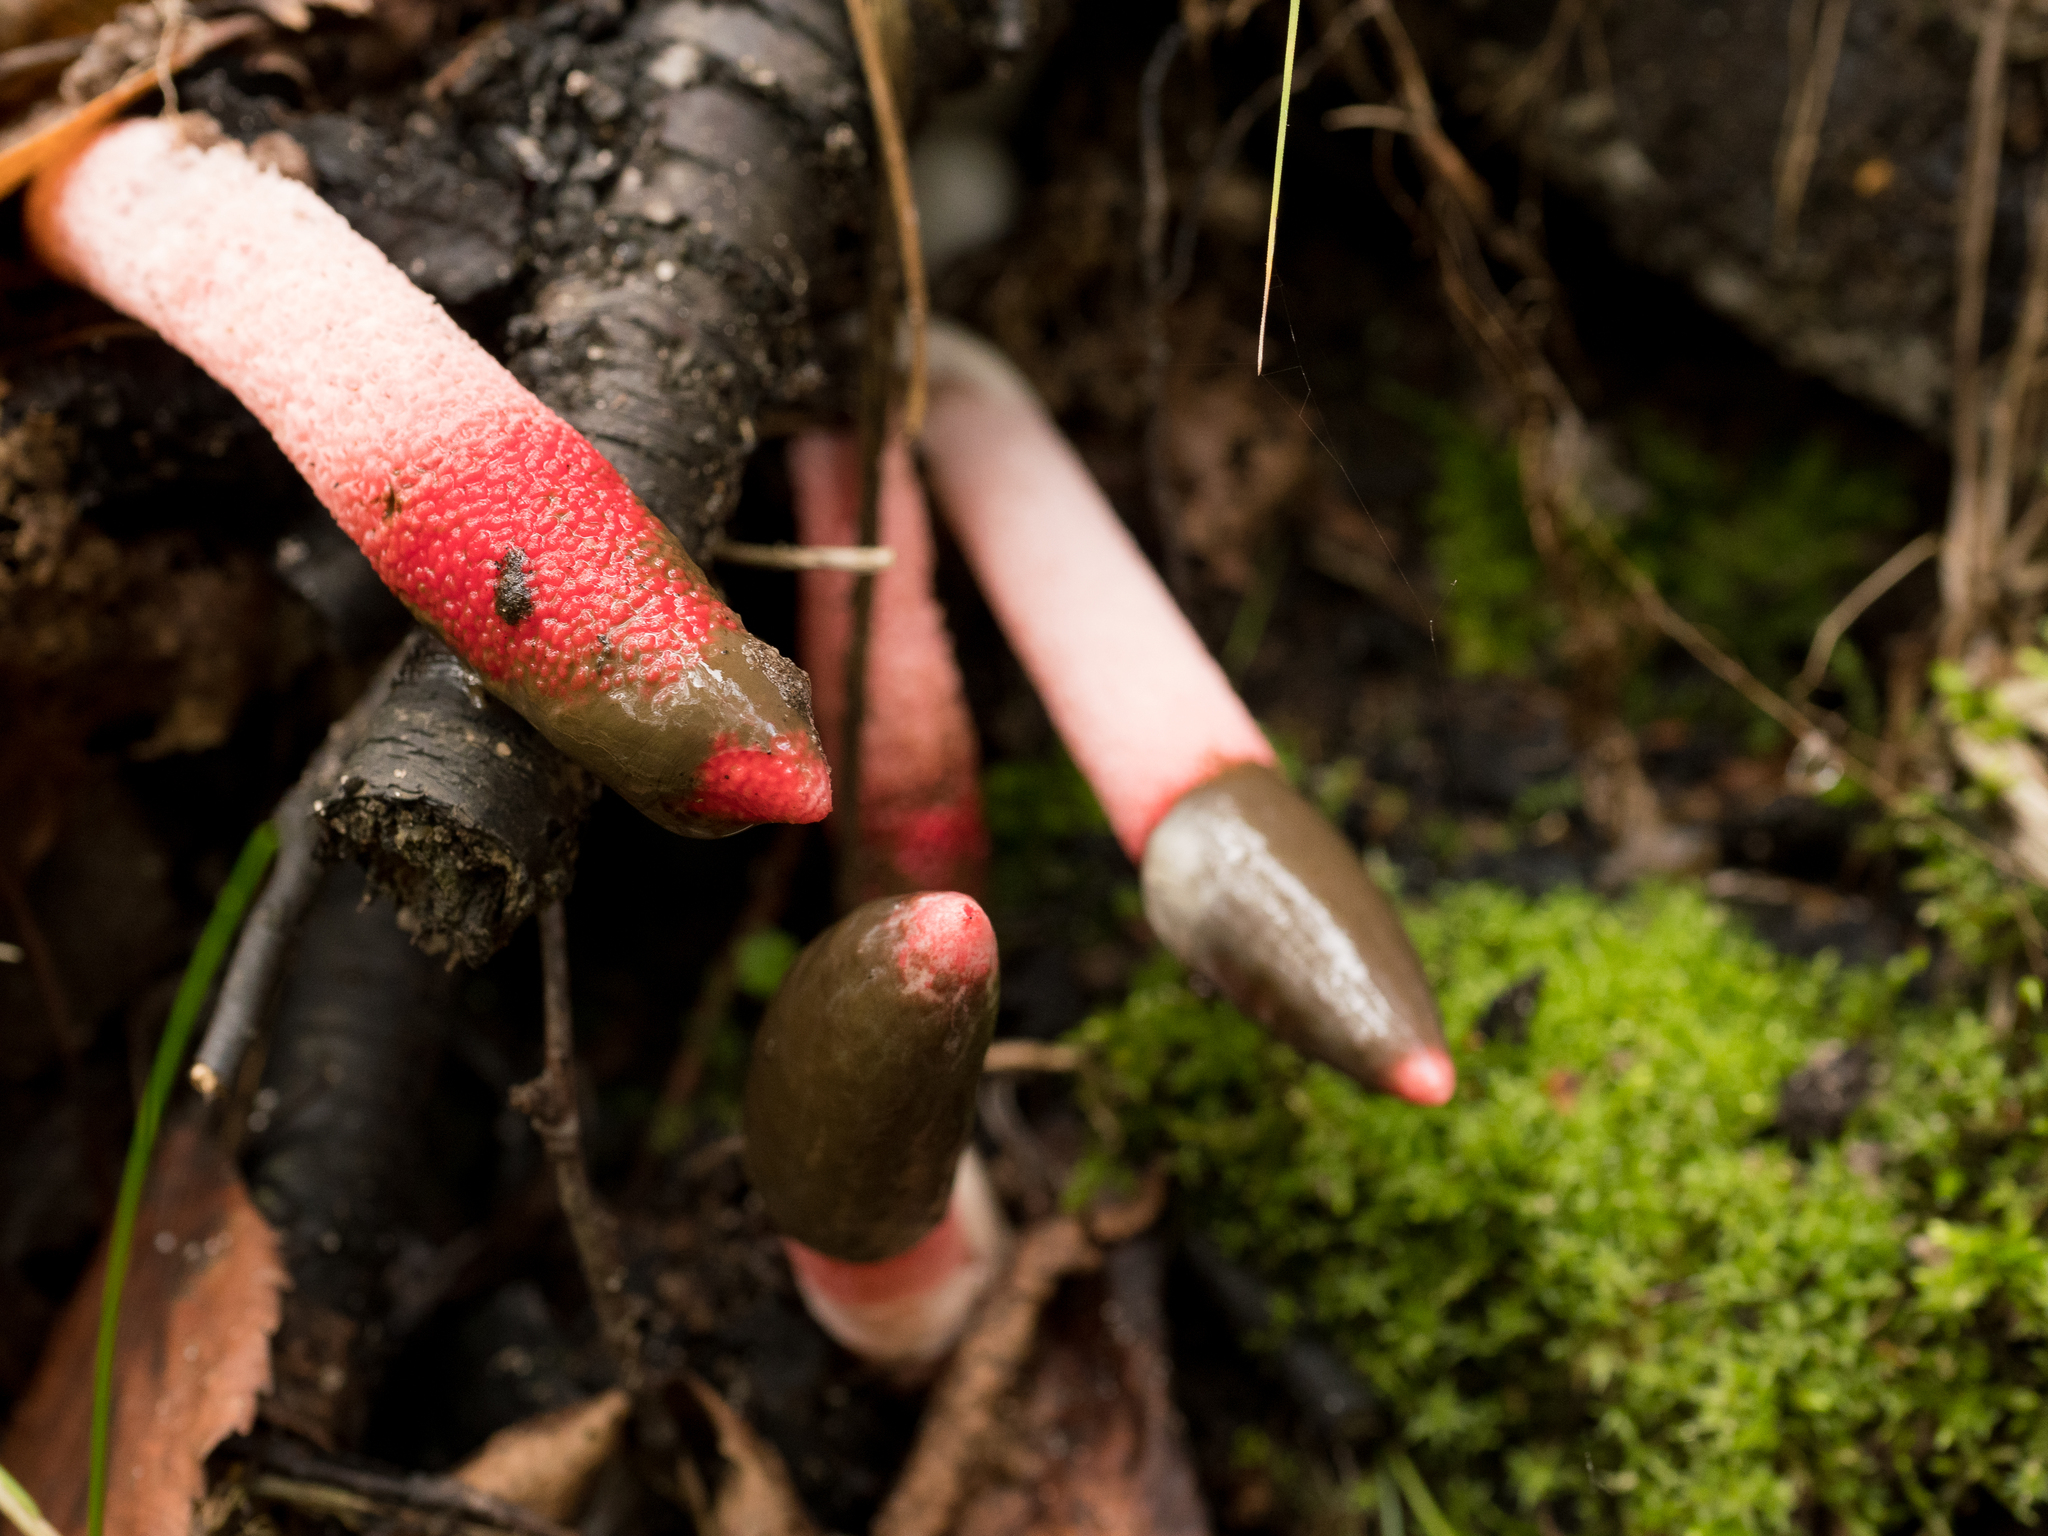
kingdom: Fungi
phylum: Basidiomycota
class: Agaricomycetes
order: Phallales
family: Phallaceae
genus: Mutinus
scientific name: Mutinus ravenelii
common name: Red stinkhorn
